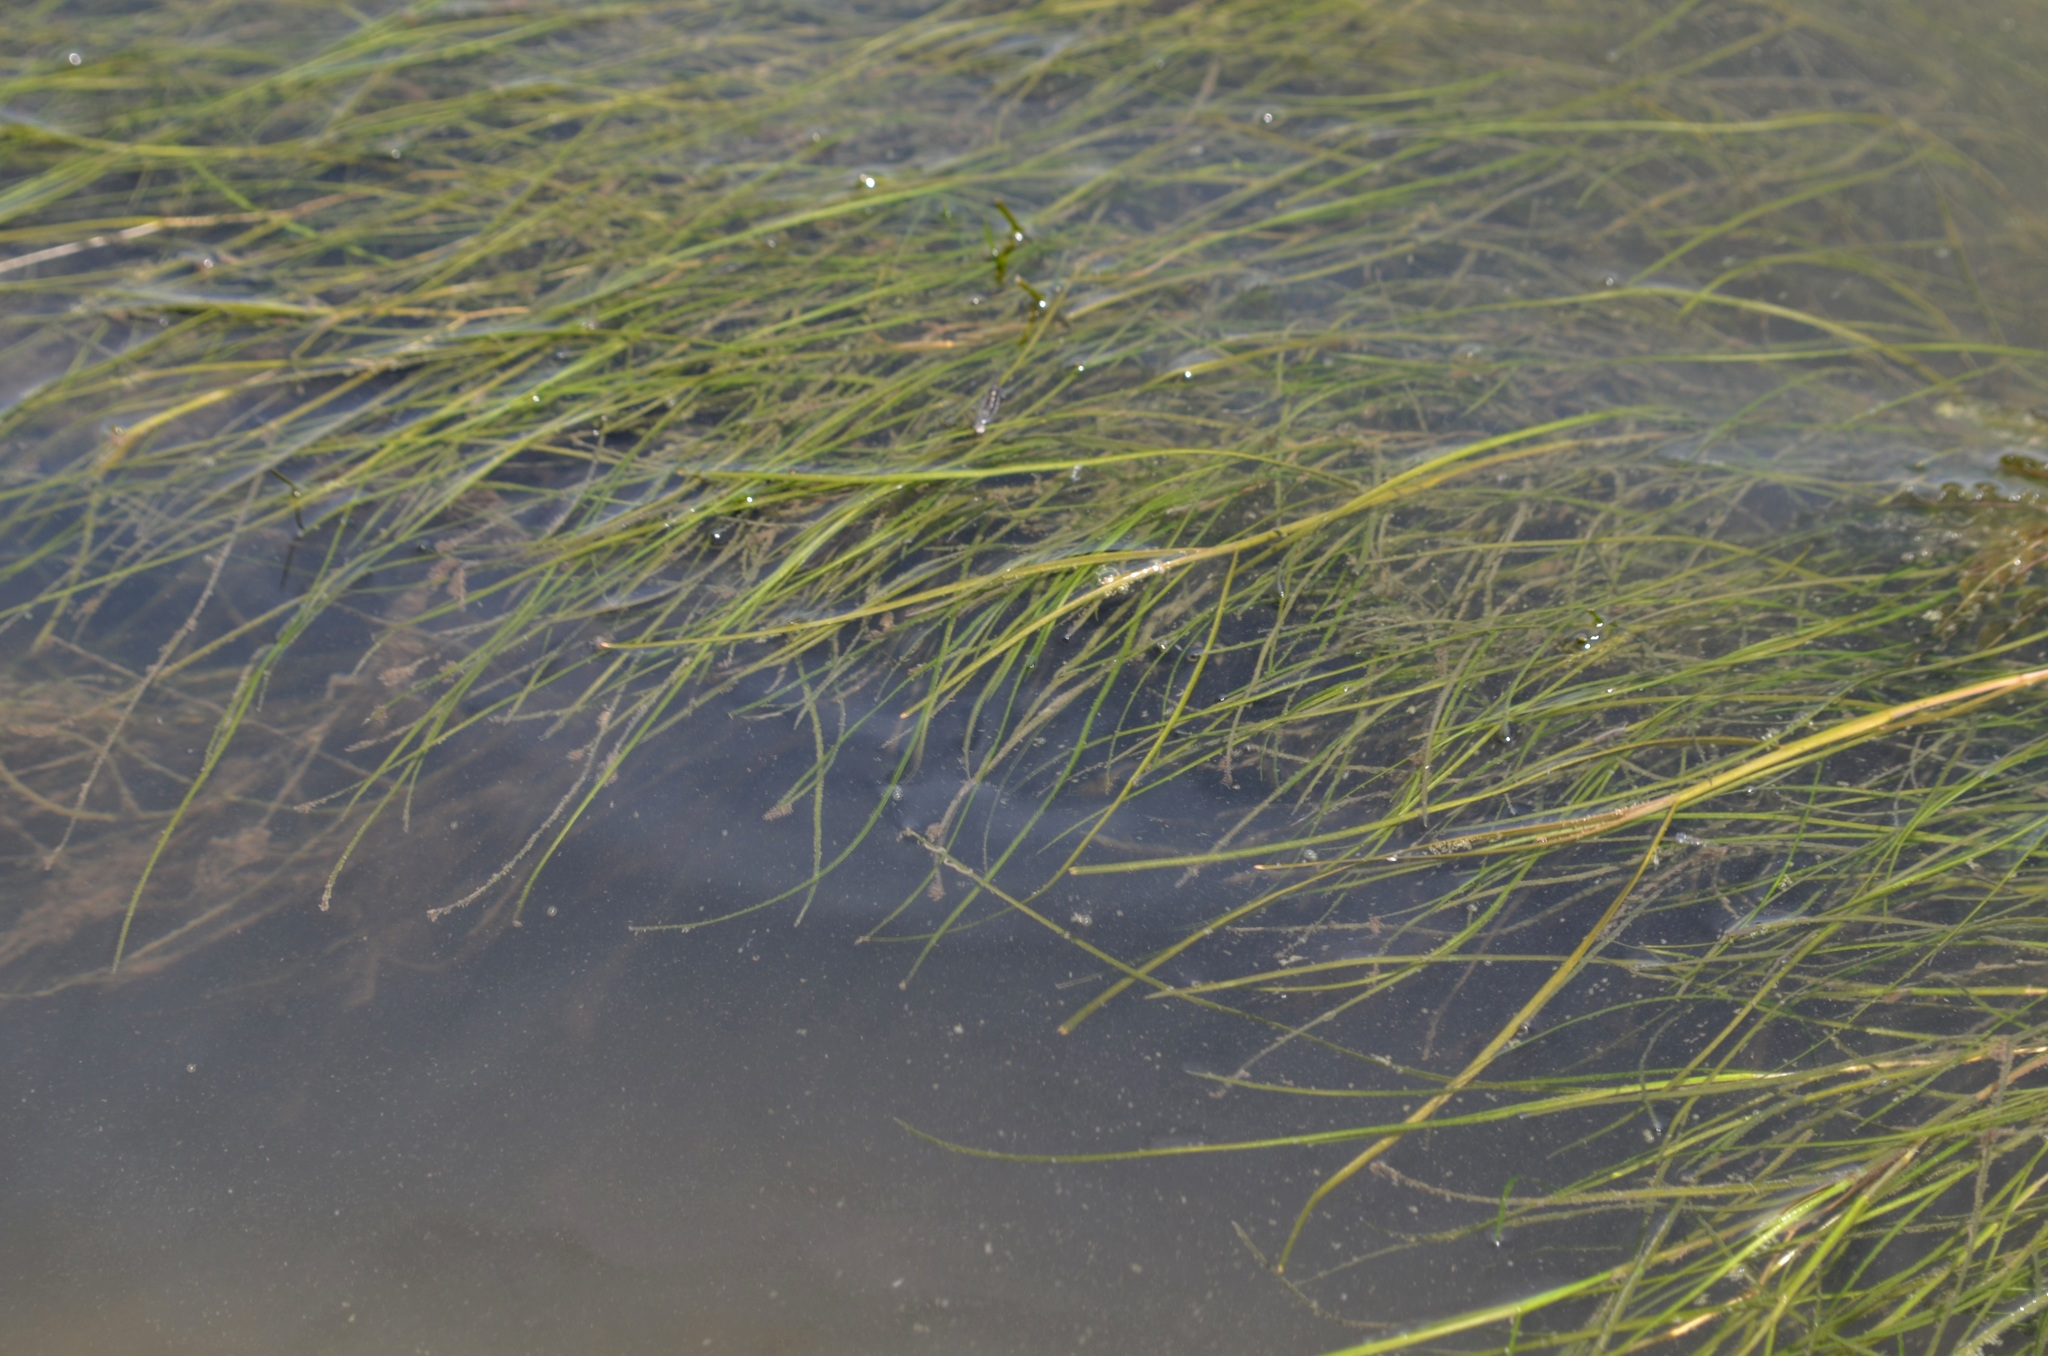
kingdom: Plantae
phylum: Tracheophyta
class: Liliopsida
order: Alismatales
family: Potamogetonaceae
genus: Stuckenia
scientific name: Stuckenia pectinata
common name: Sago pondweed
